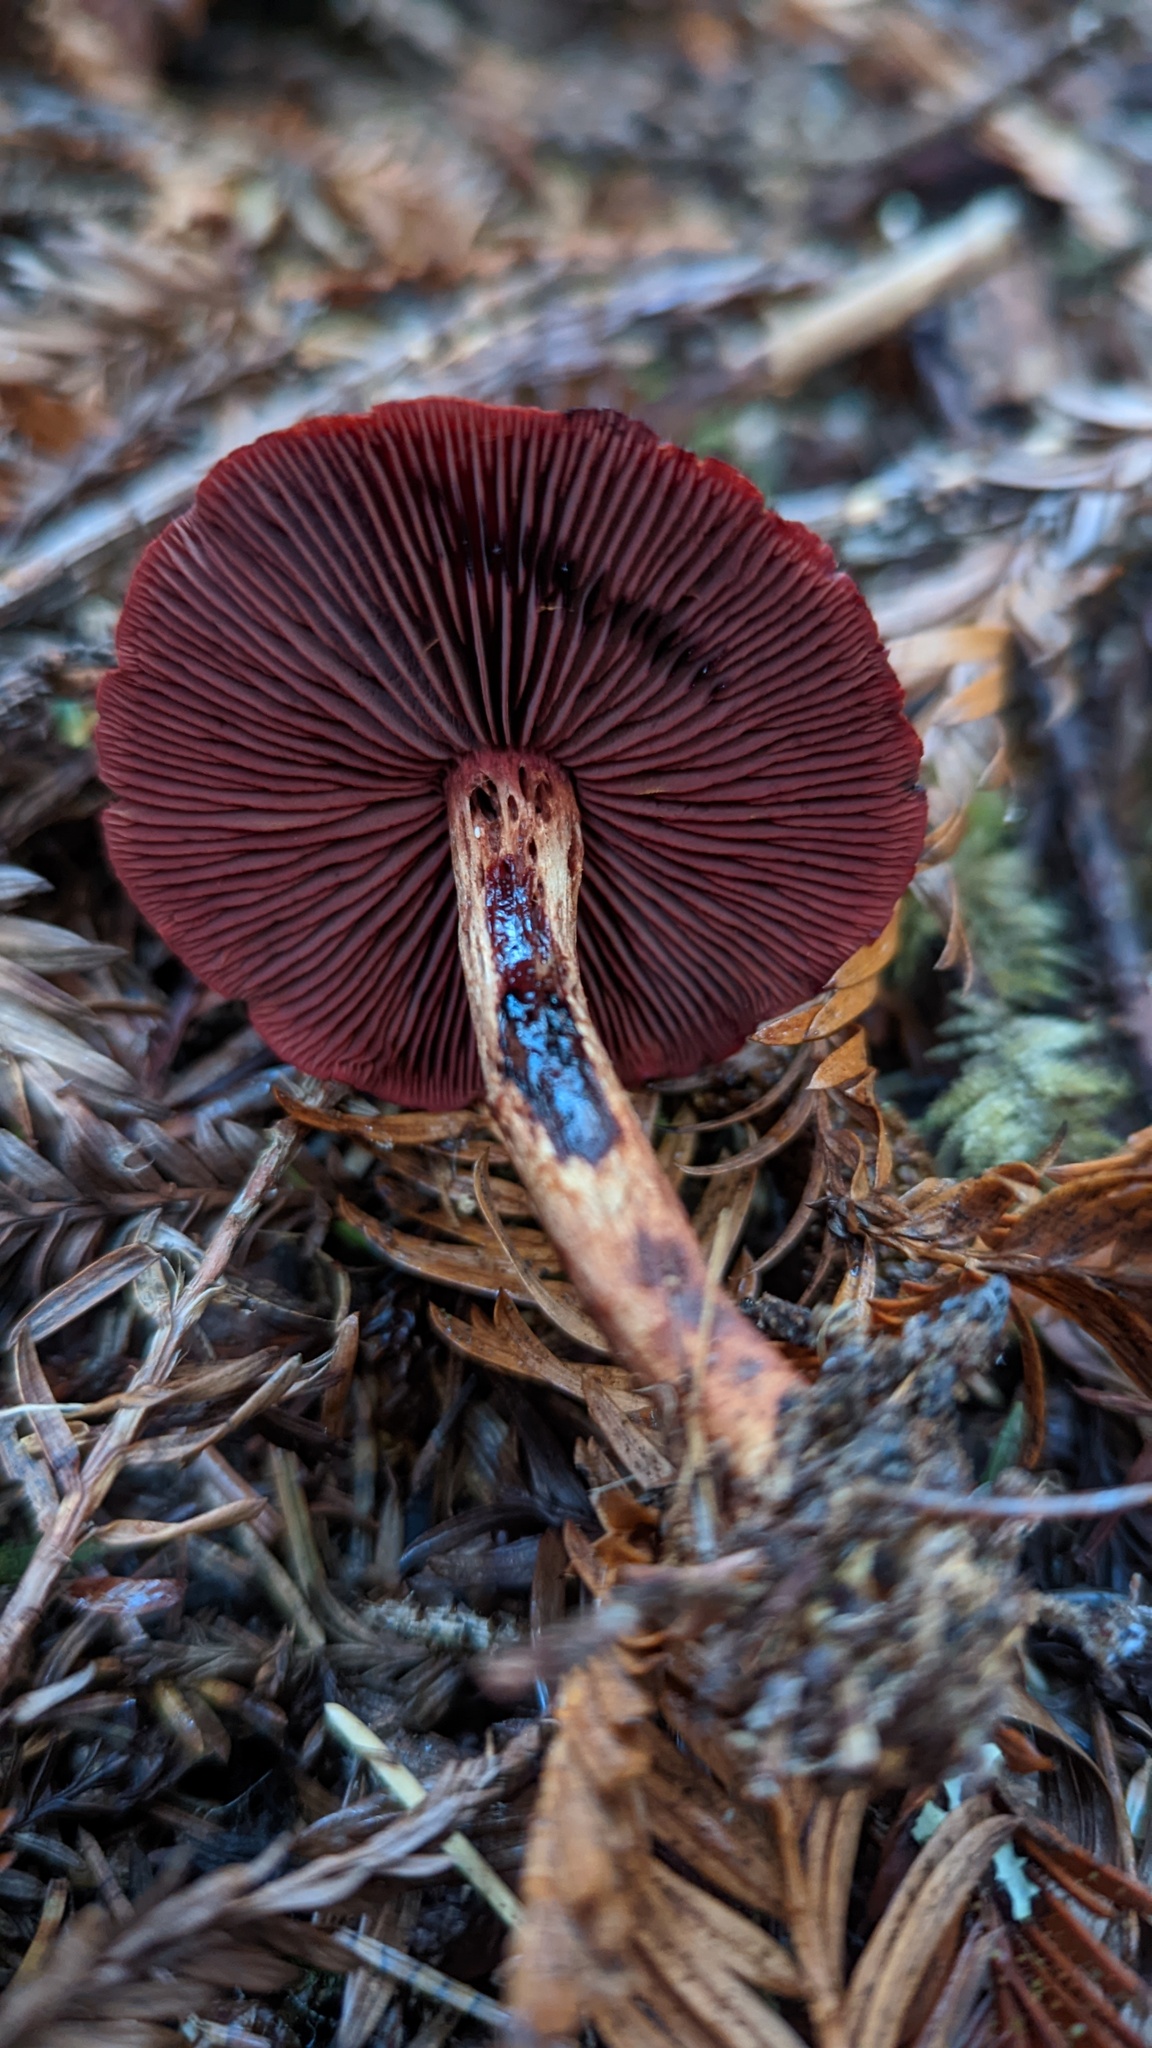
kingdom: Fungi
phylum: Basidiomycota
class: Agaricomycetes
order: Agaricales
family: Cortinariaceae
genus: Cortinarius
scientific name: Cortinarius smithii
